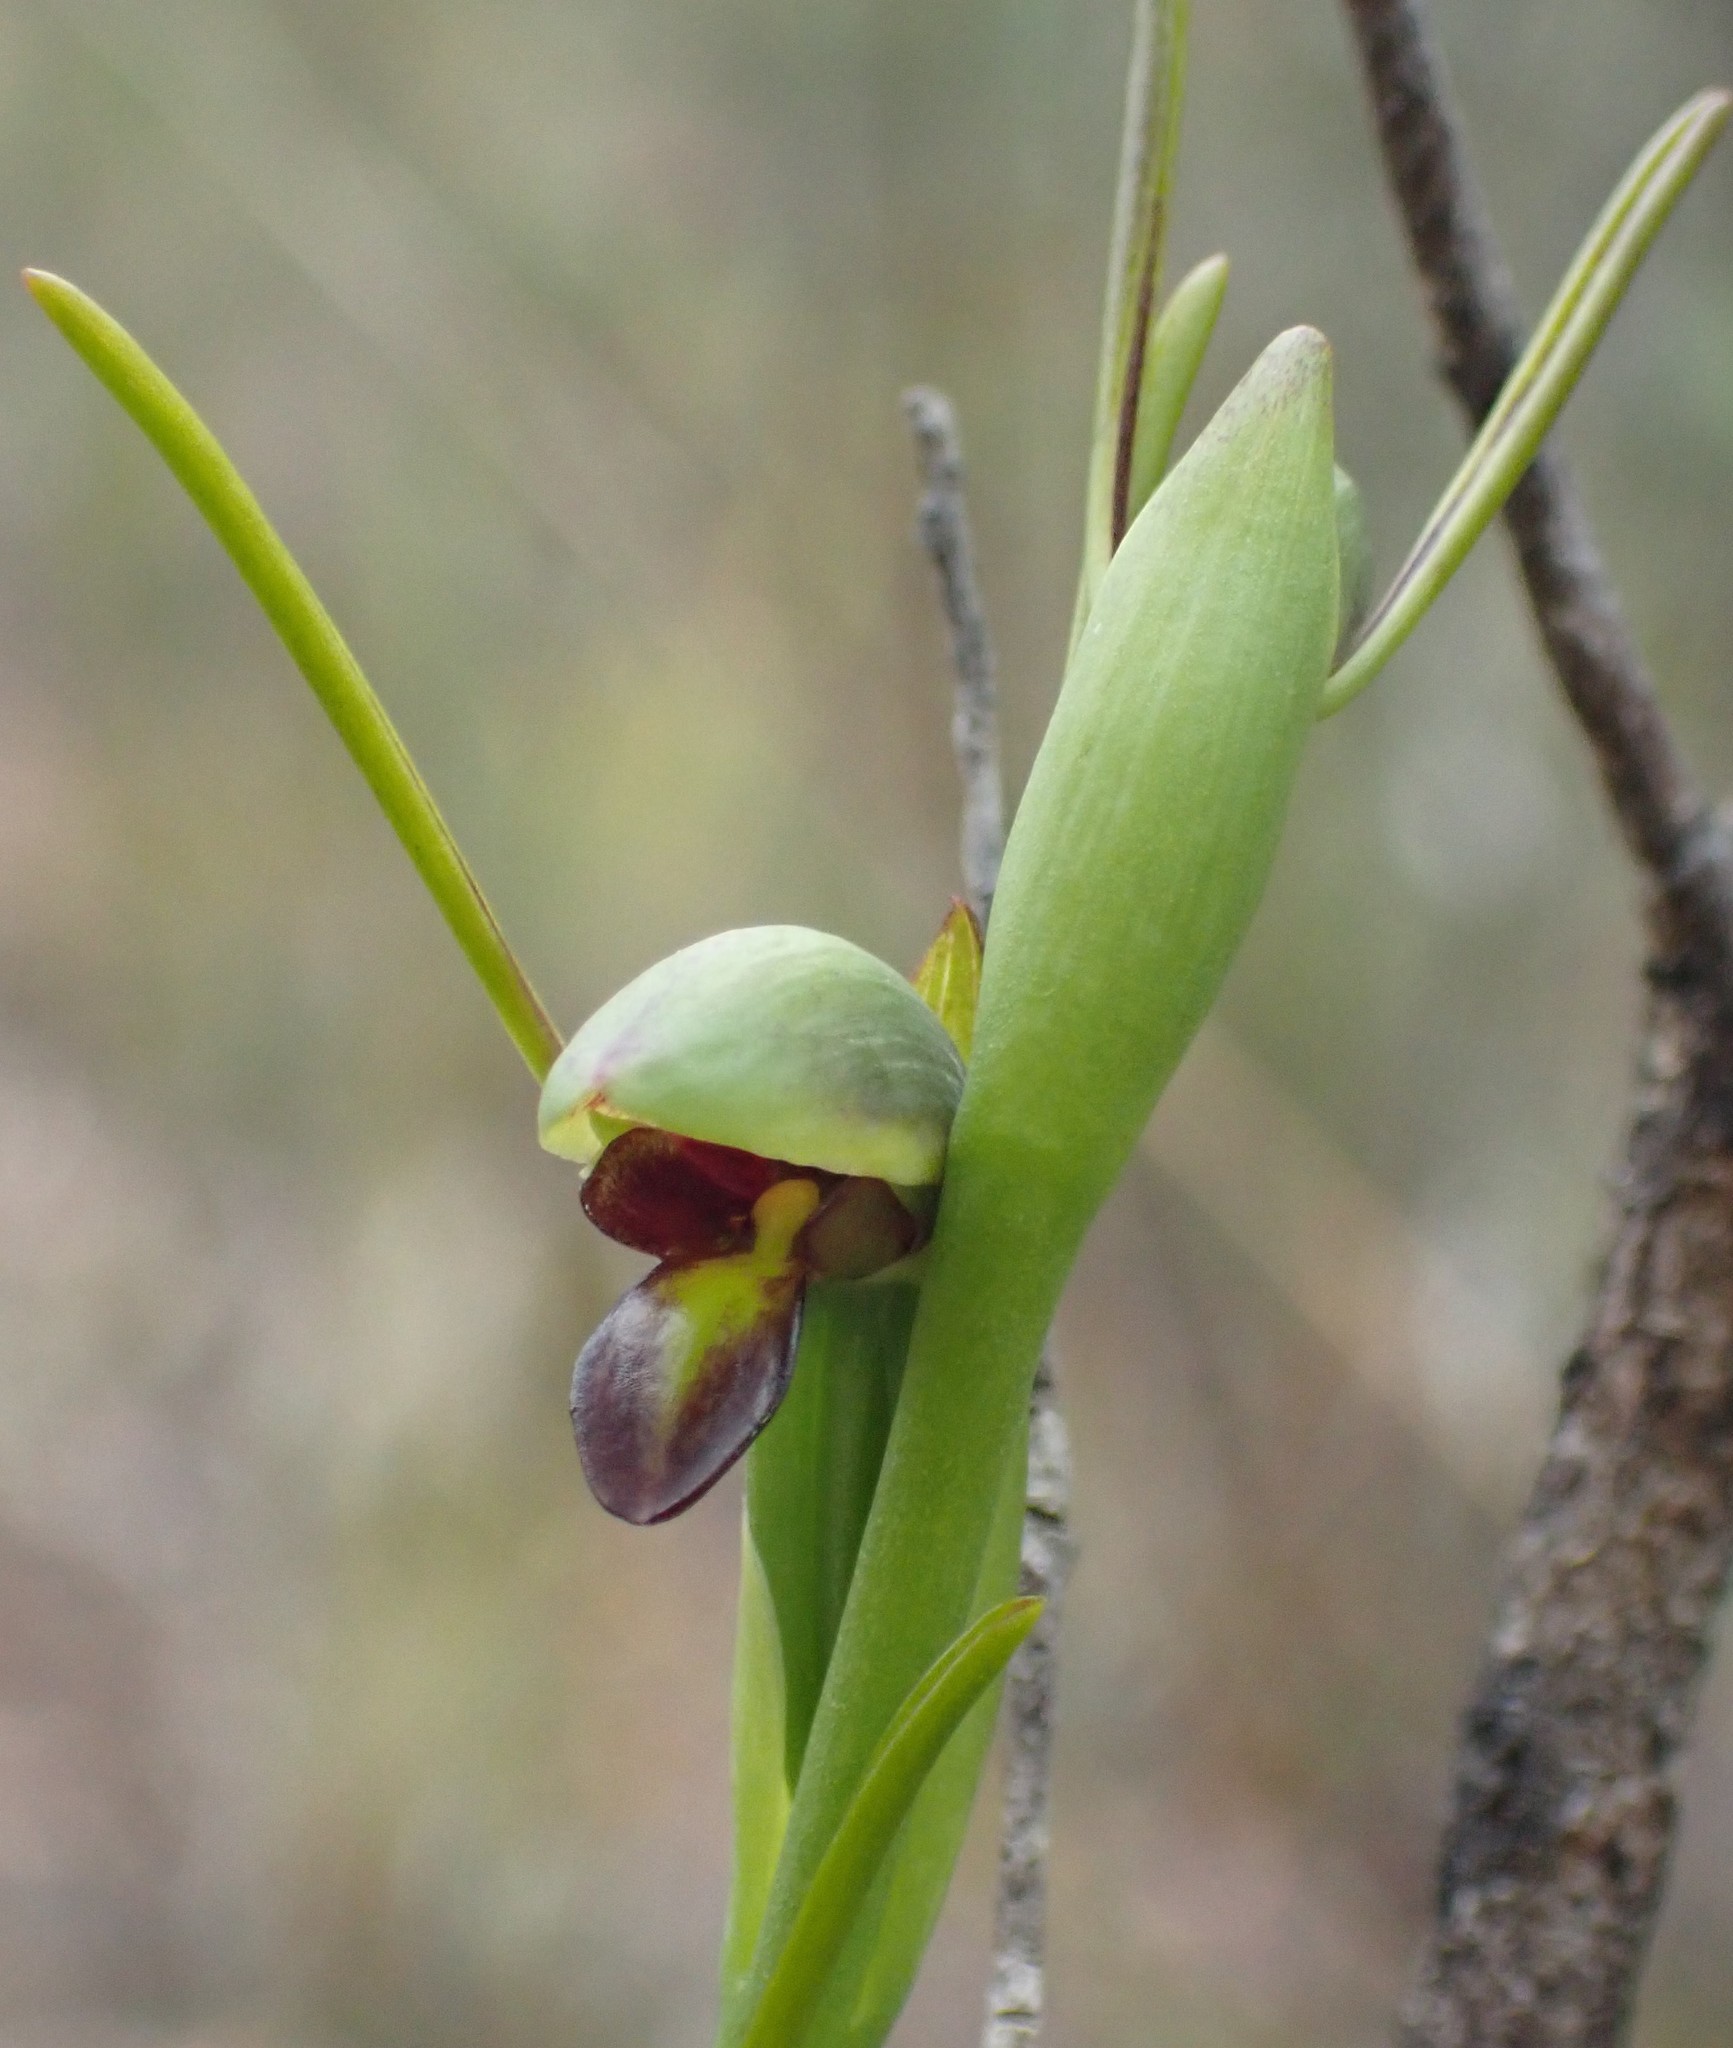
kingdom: Plantae
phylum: Tracheophyta
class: Liliopsida
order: Asparagales
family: Orchidaceae
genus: Orthoceras
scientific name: Orthoceras strictum
